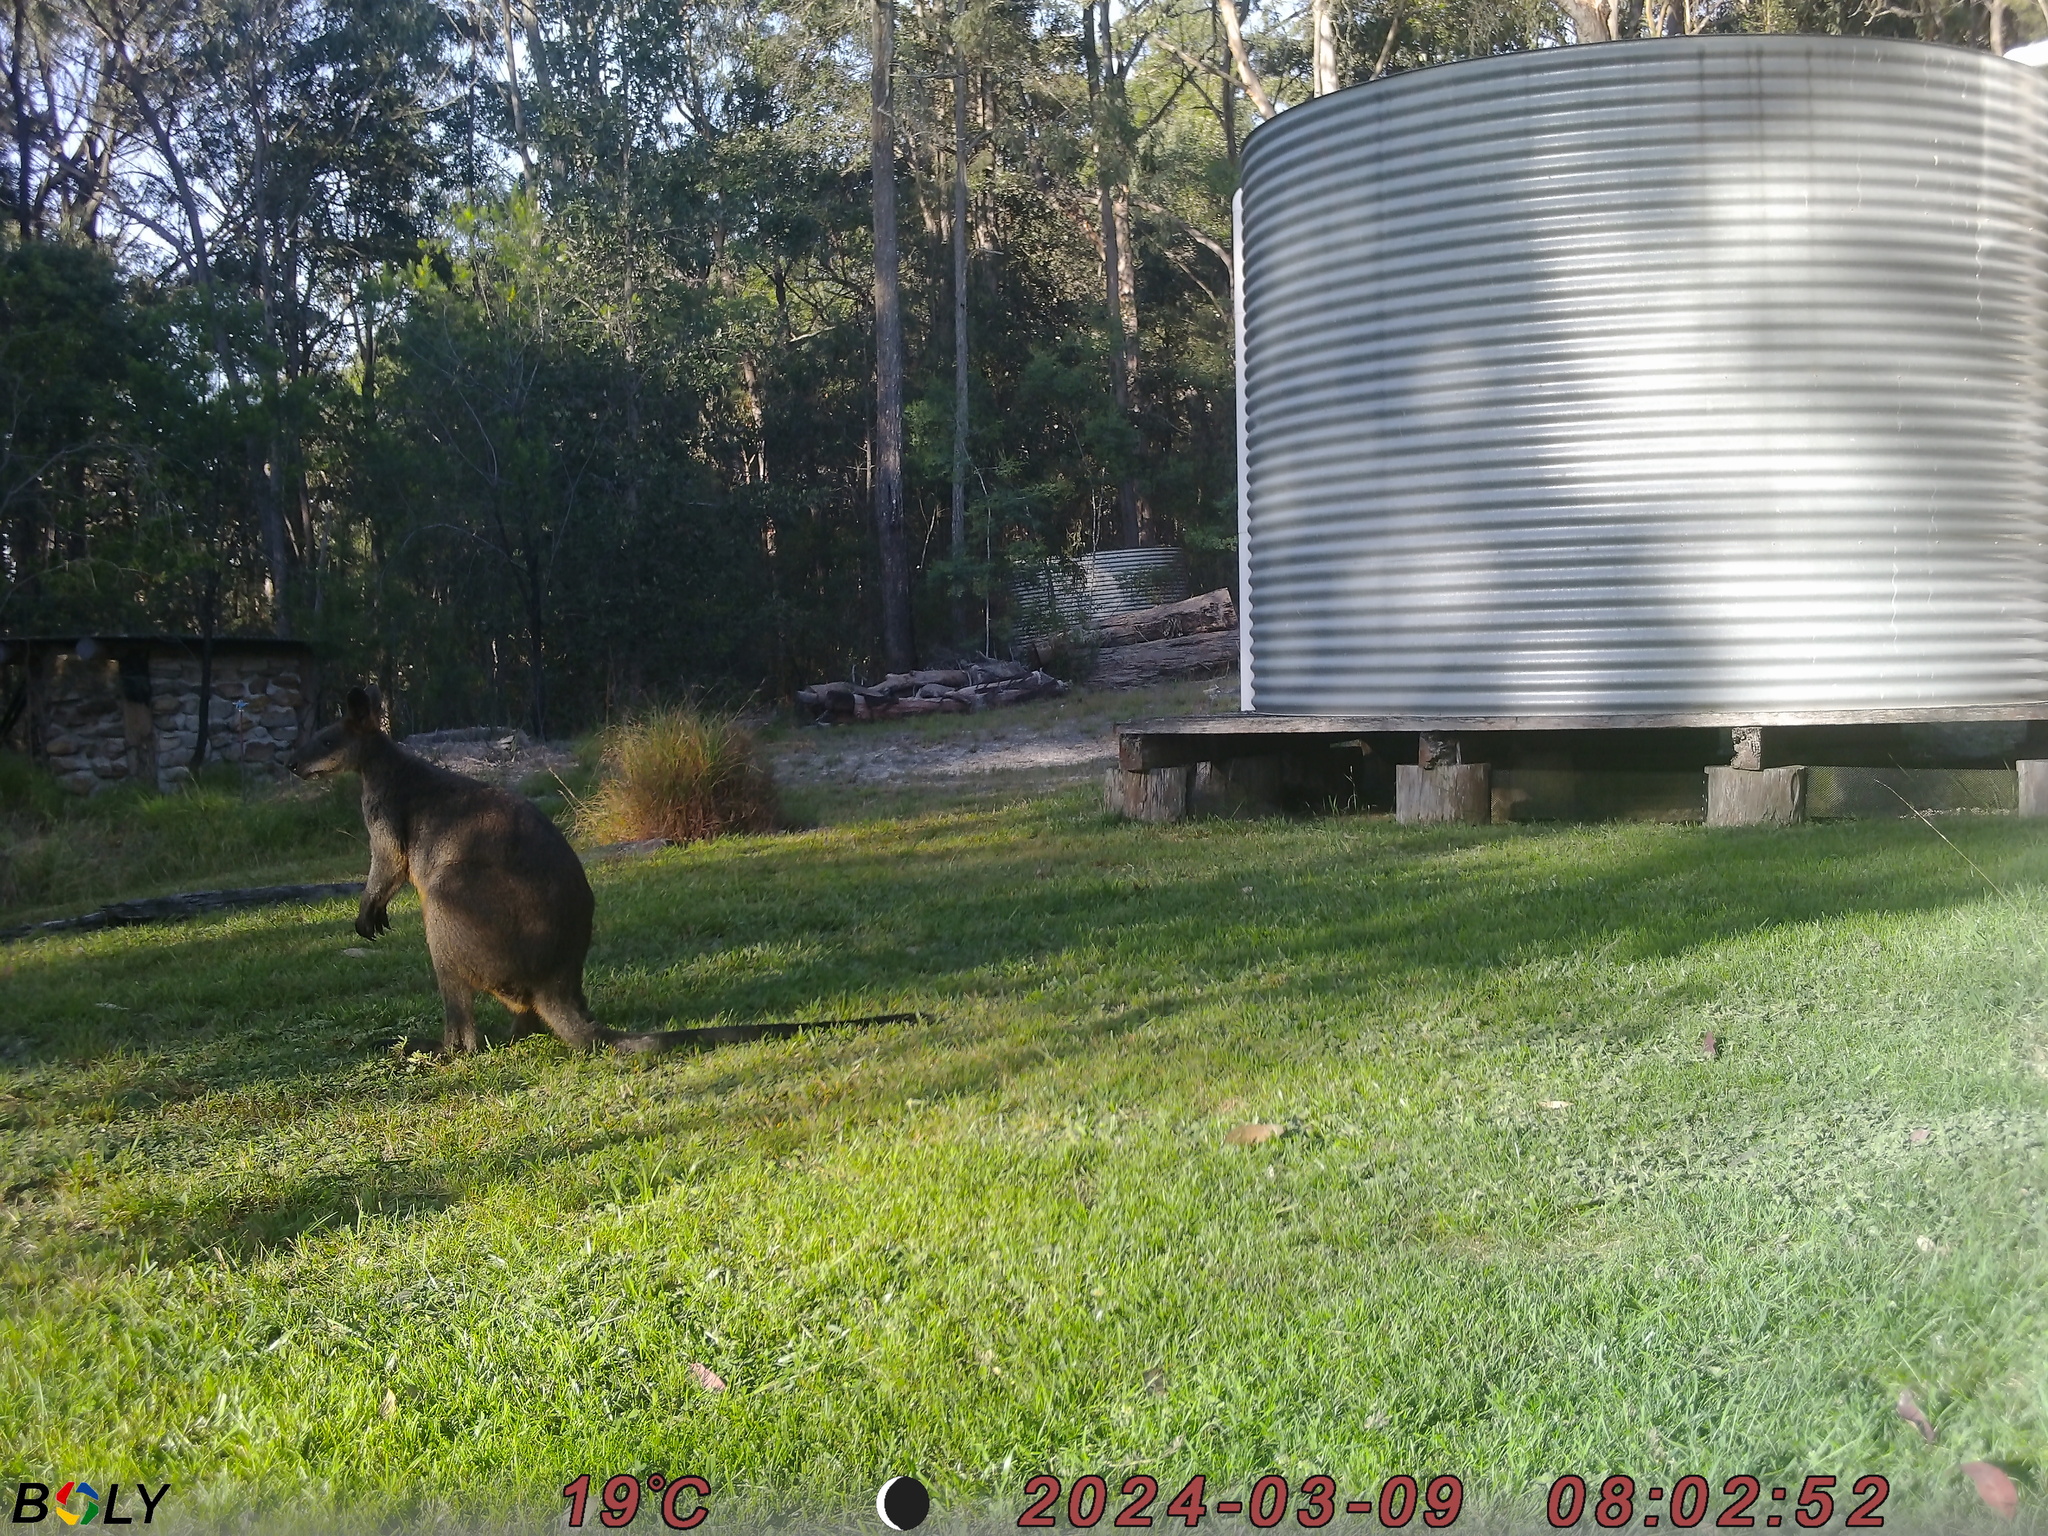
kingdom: Animalia
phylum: Chordata
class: Mammalia
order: Diprotodontia
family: Macropodidae
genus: Wallabia
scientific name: Wallabia bicolor
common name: Swamp wallaby
